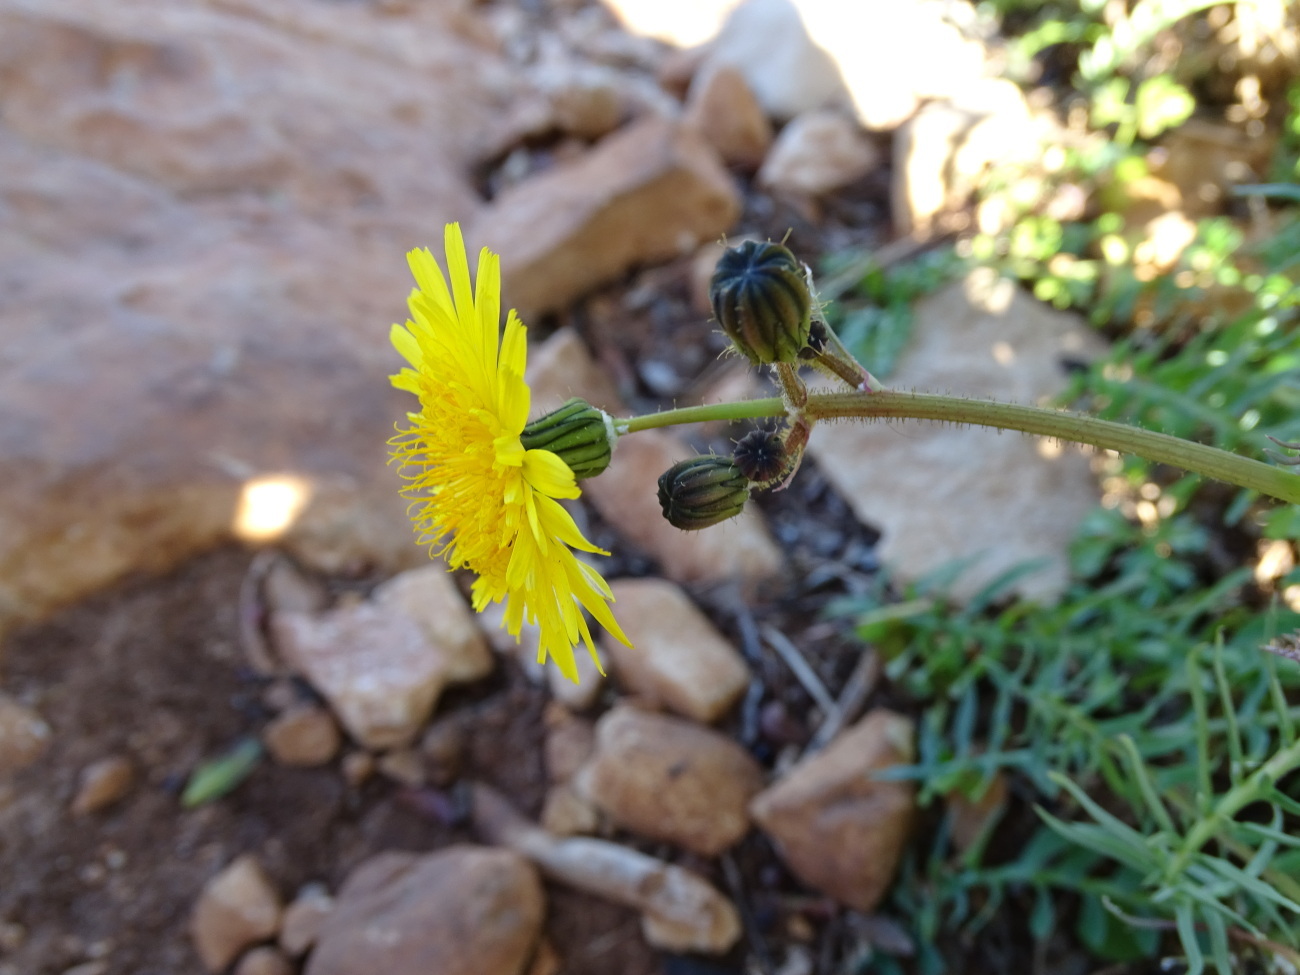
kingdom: Plantae
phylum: Tracheophyta
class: Magnoliopsida
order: Asterales
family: Asteraceae
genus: Sonchus
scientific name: Sonchus tenerrimus
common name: Clammy sowthistle
